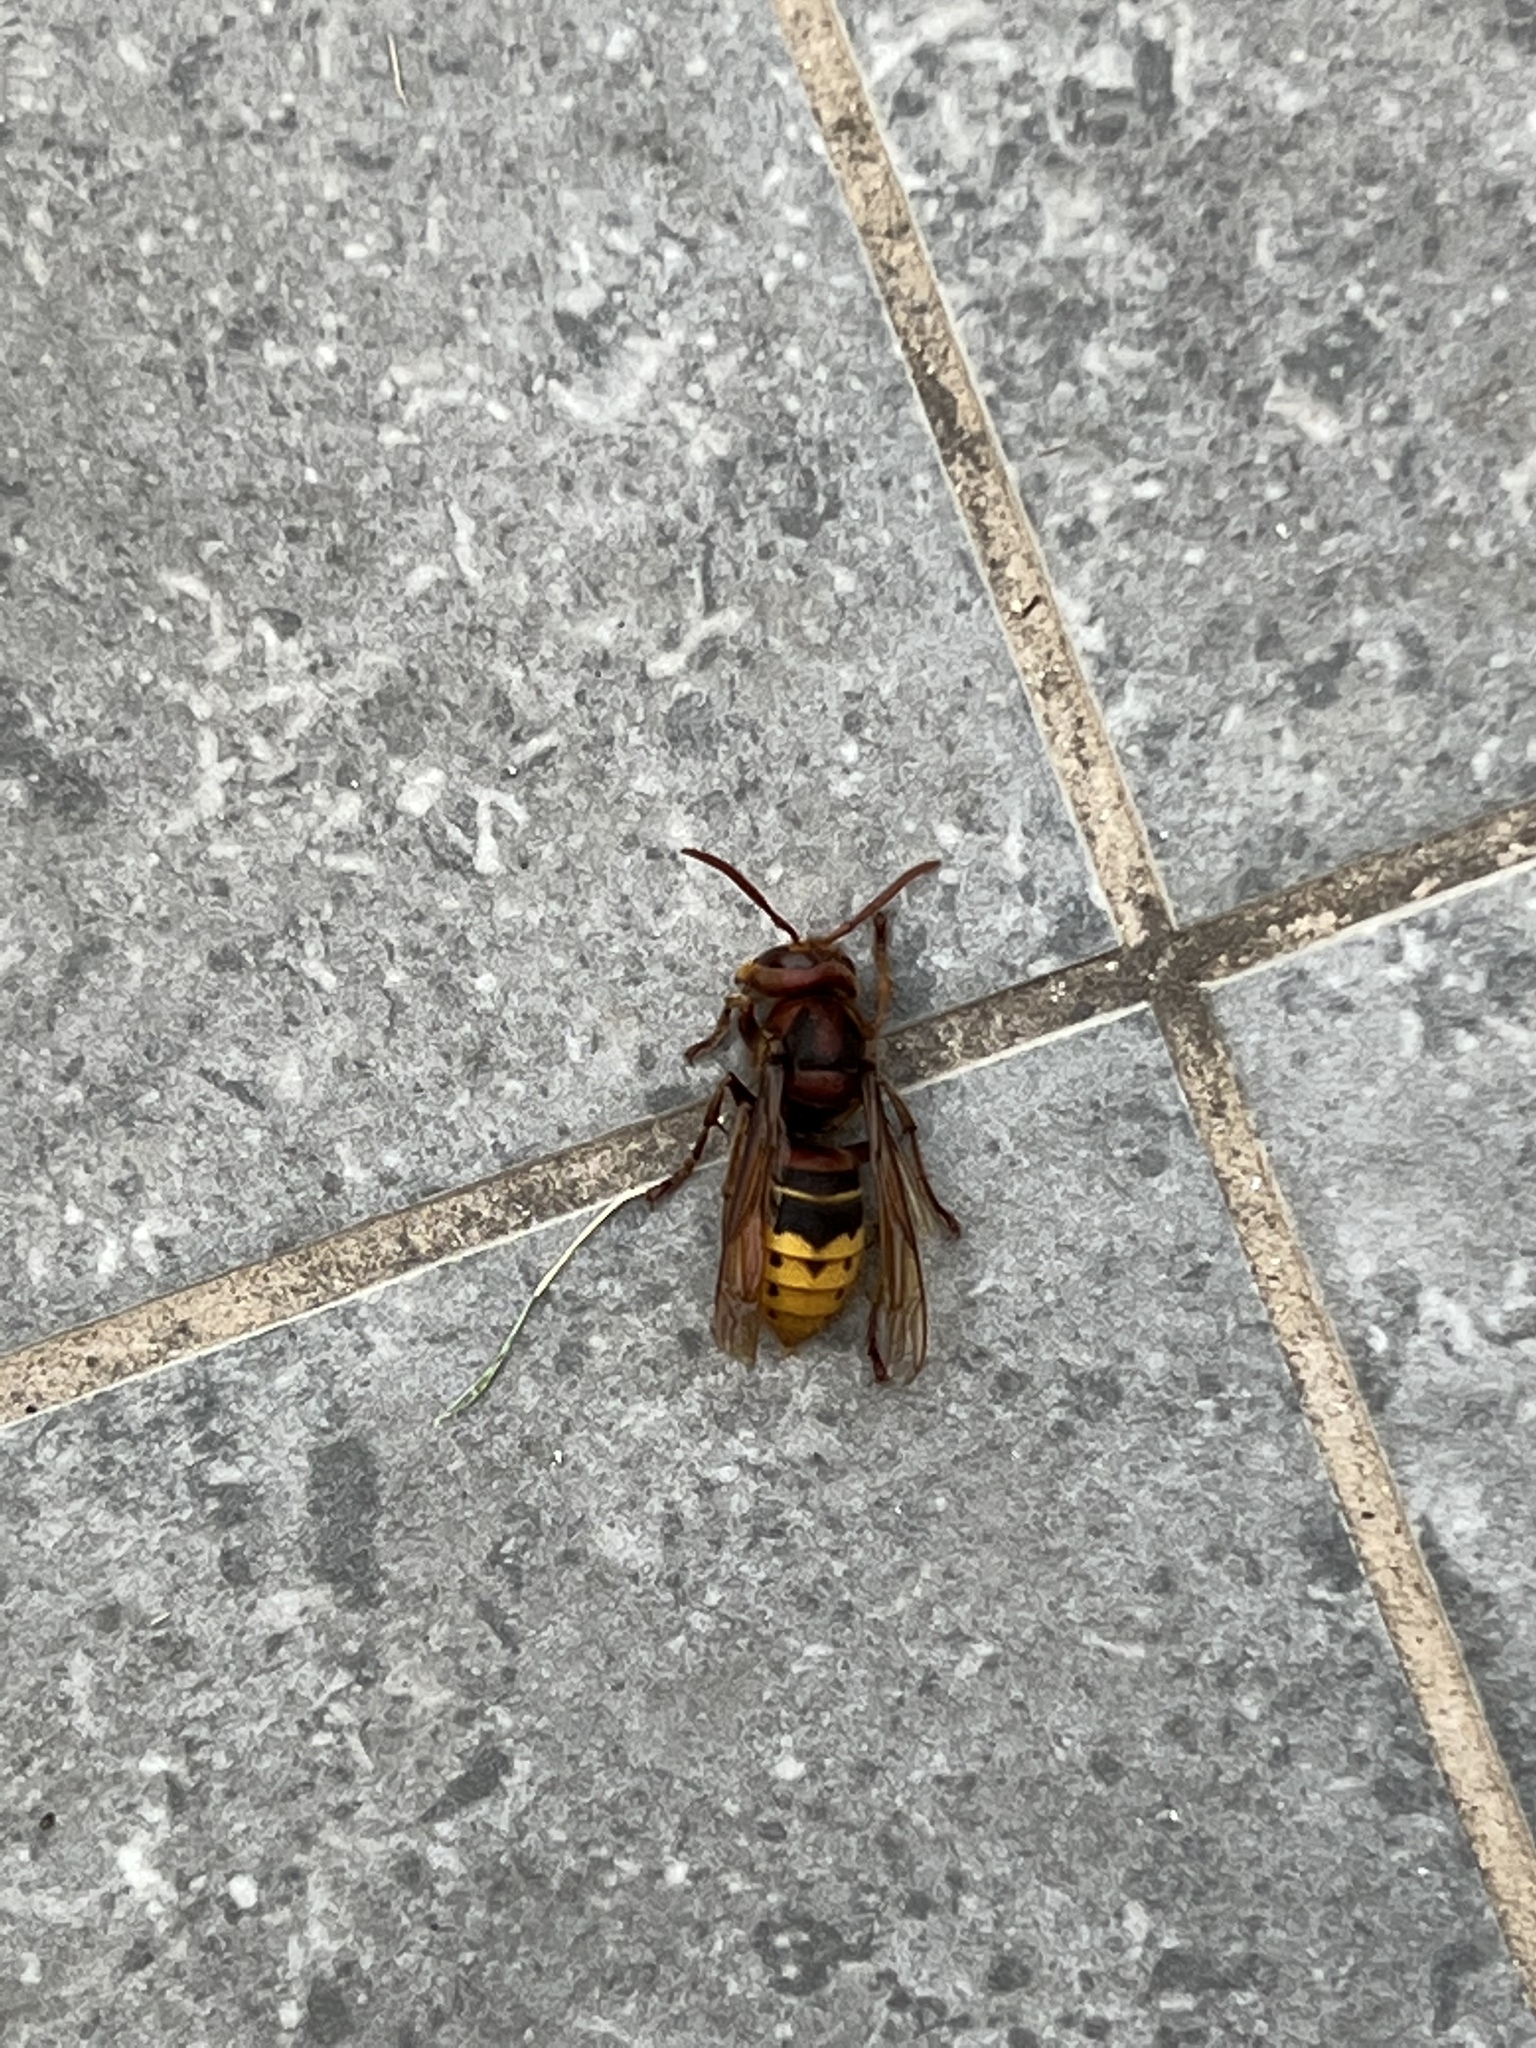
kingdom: Animalia
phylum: Arthropoda
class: Insecta
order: Hymenoptera
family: Vespidae
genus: Vespa
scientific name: Vespa crabro
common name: Hornet
